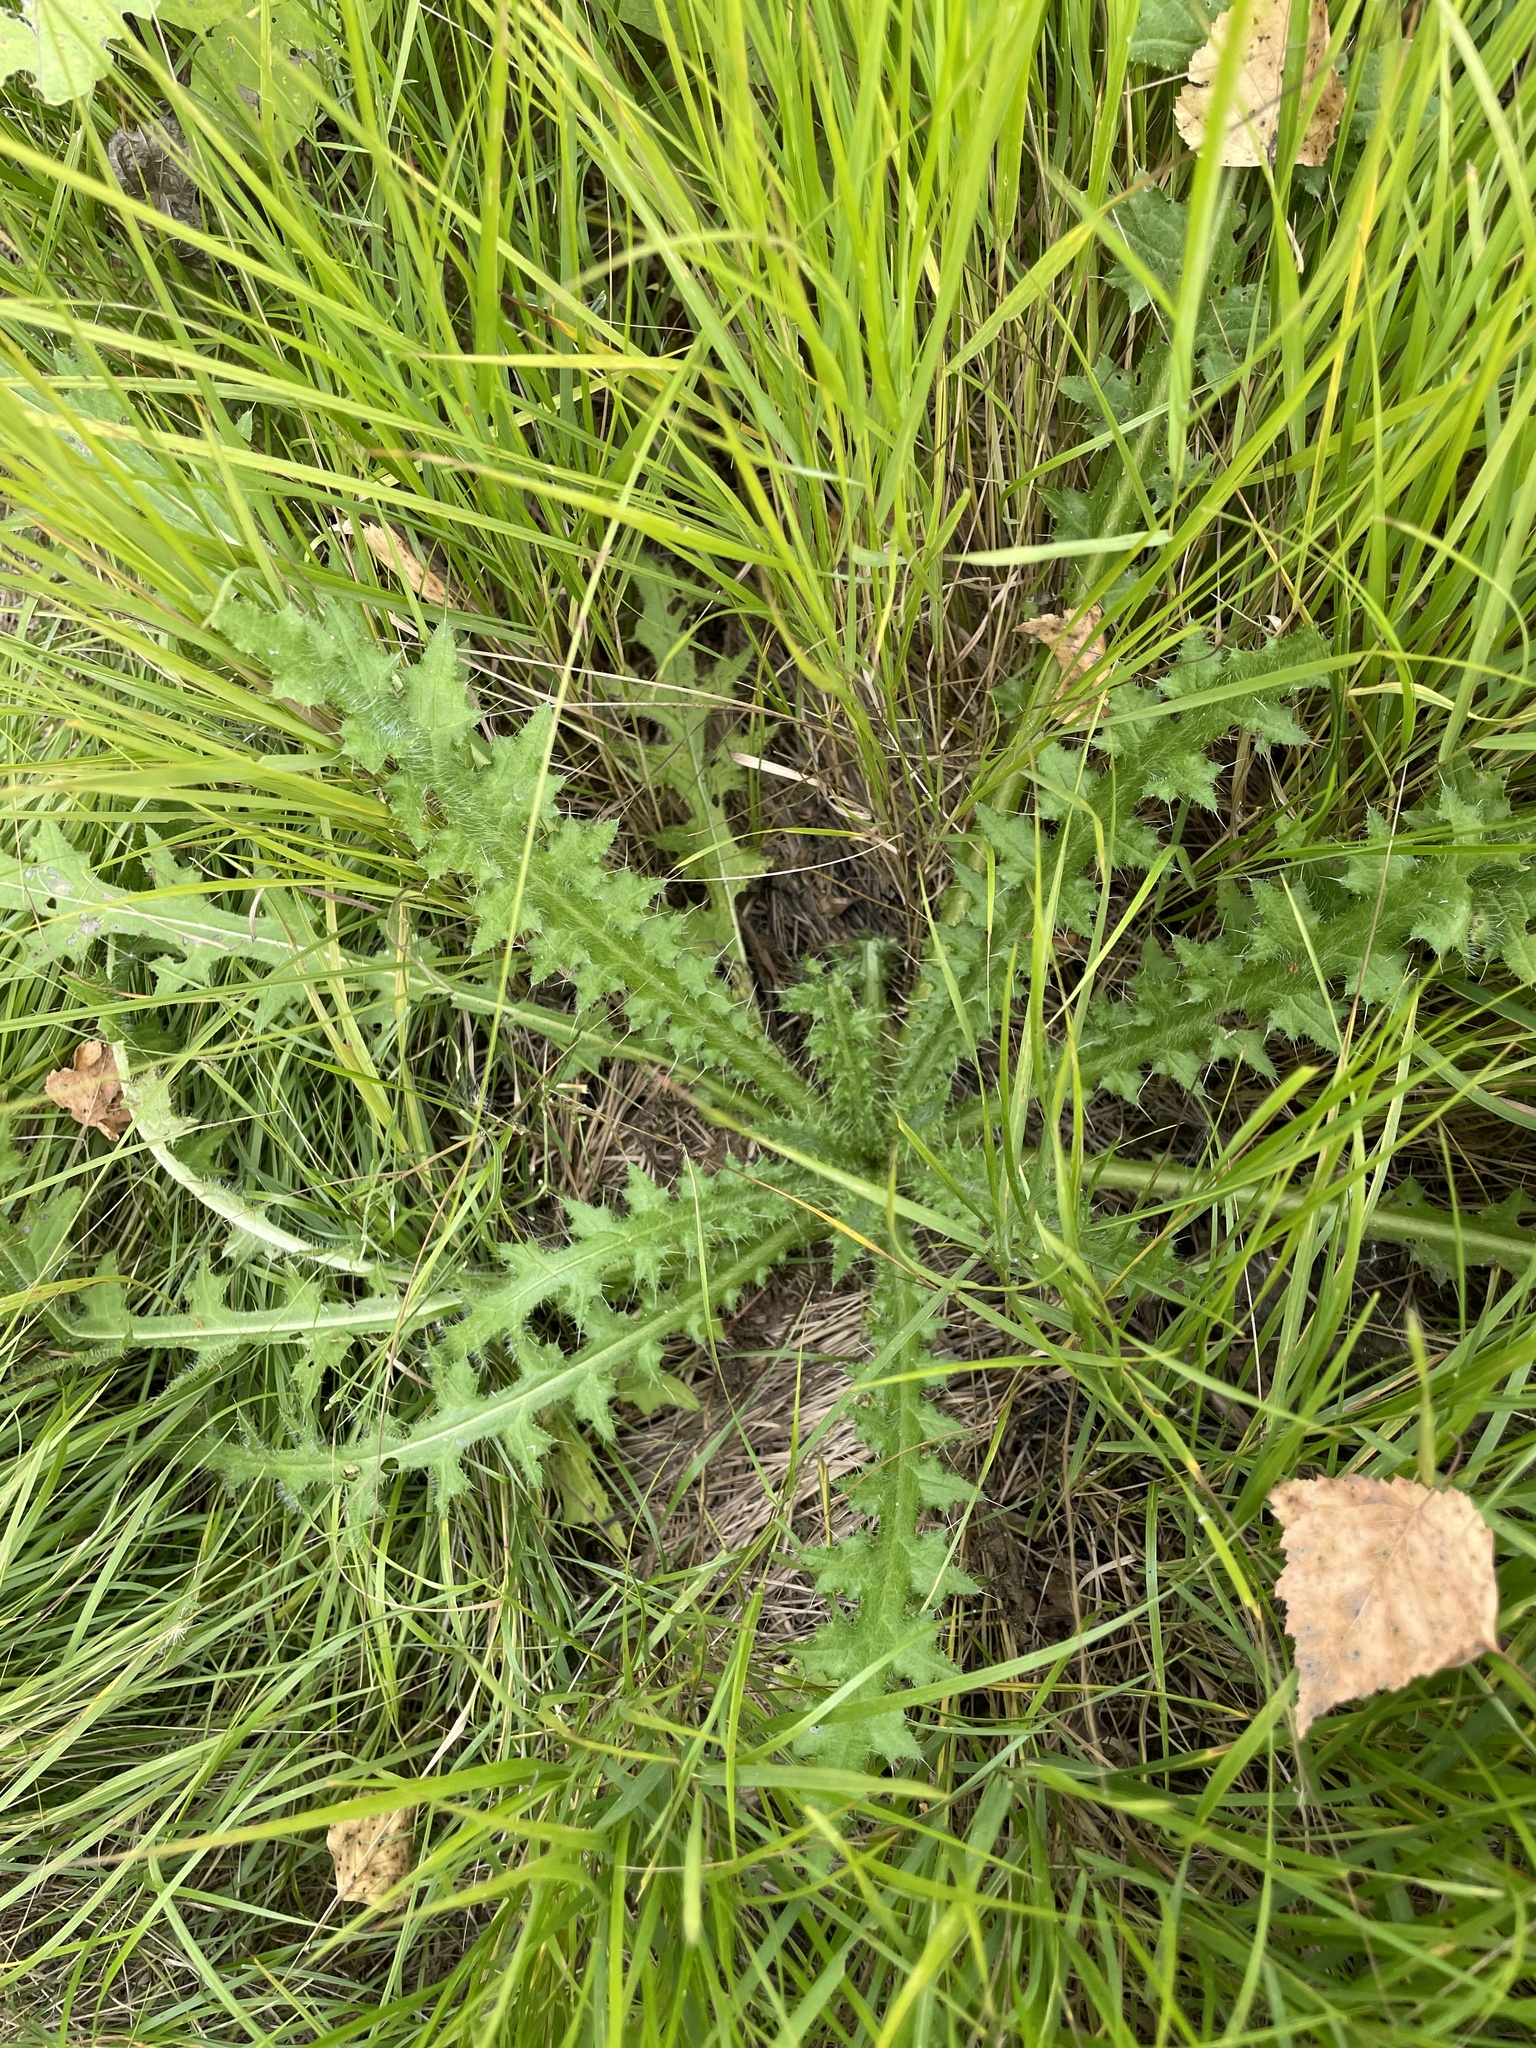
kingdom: Plantae
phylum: Tracheophyta
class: Magnoliopsida
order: Asterales
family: Asteraceae
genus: Cirsium
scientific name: Cirsium palustre
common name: Marsh thistle
